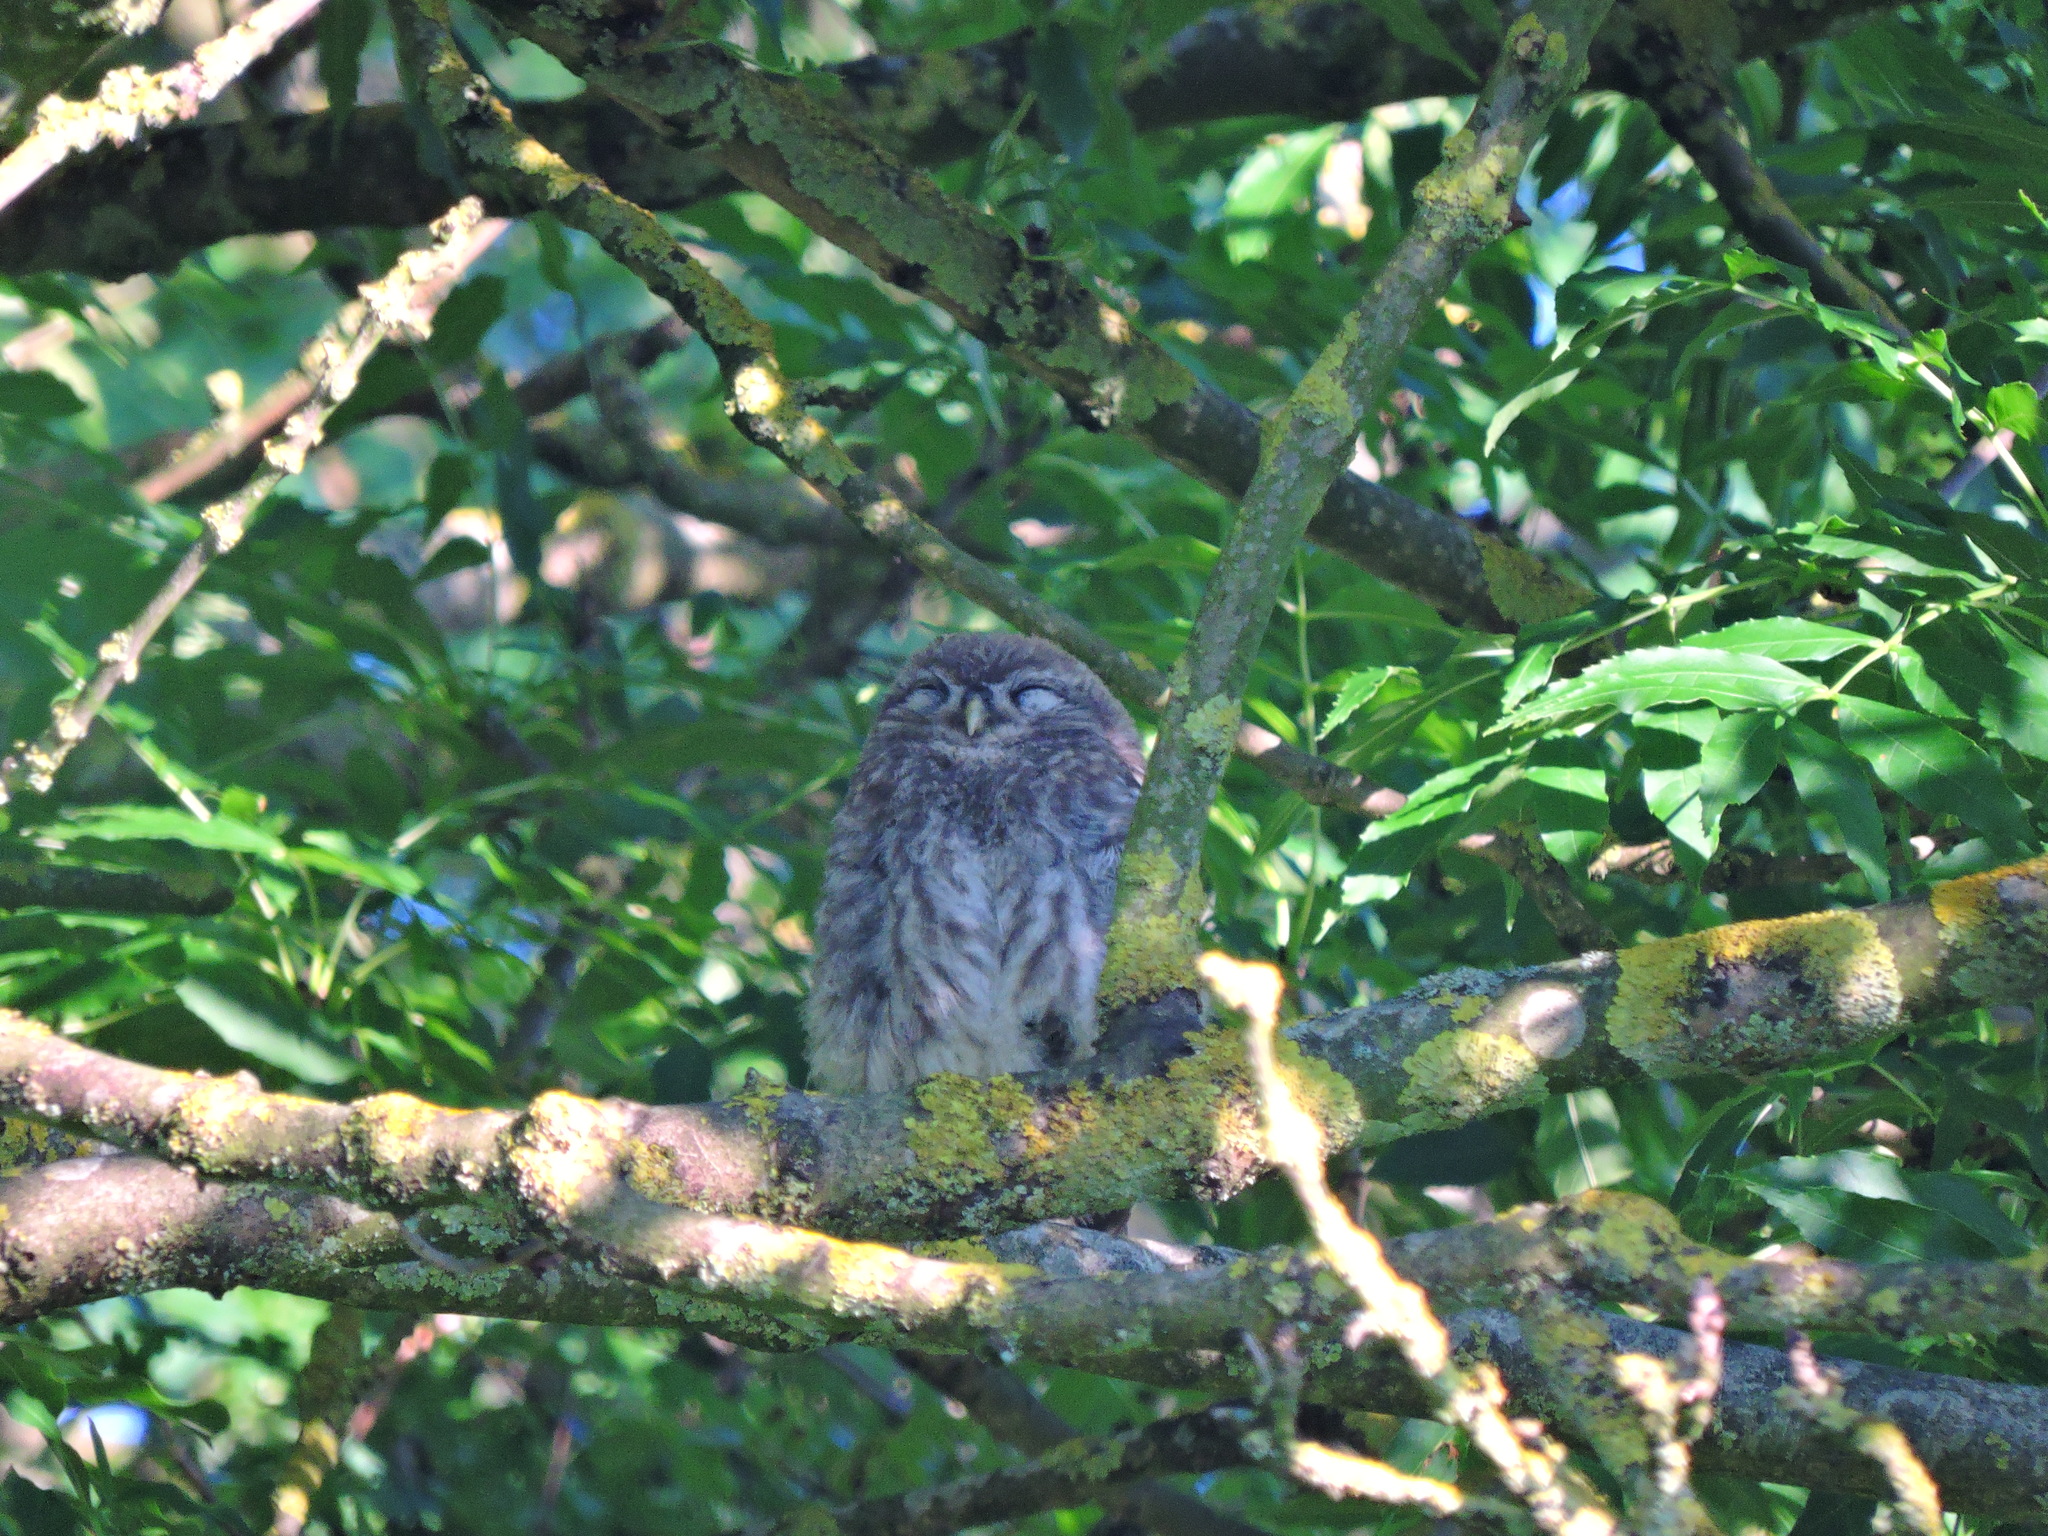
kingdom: Animalia
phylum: Chordata
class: Aves
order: Strigiformes
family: Strigidae
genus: Athene
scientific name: Athene noctua
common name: Little owl
